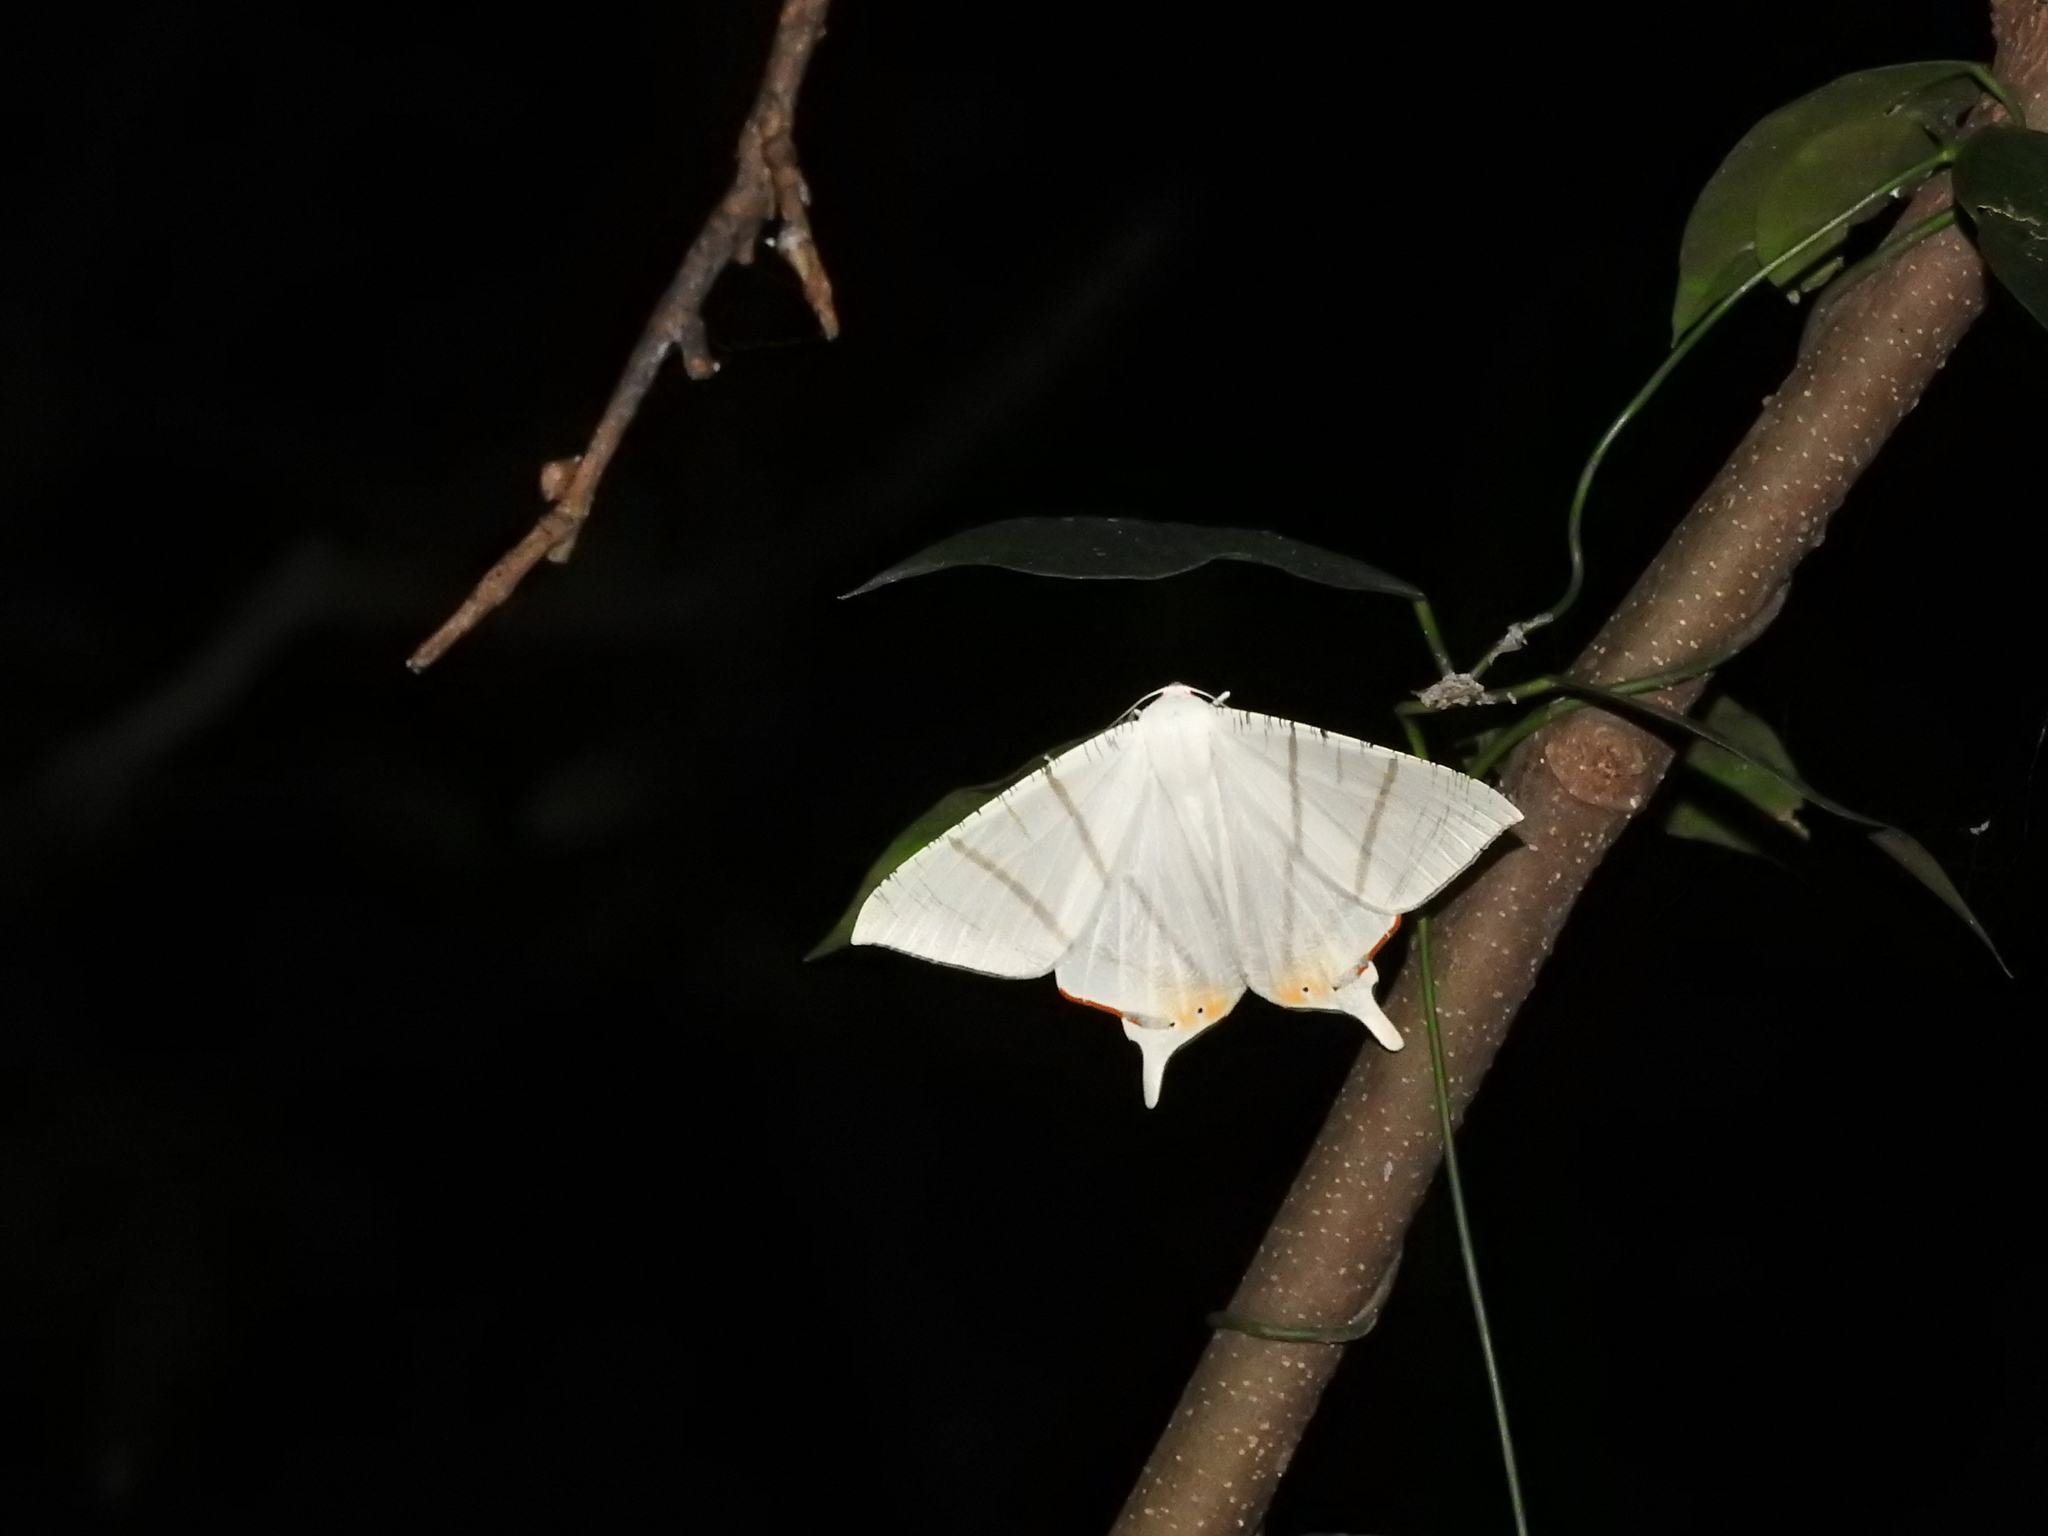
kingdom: Animalia
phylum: Arthropoda
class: Insecta
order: Lepidoptera
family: Geometridae
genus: Ourapteryx
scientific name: Ourapteryx marginata
